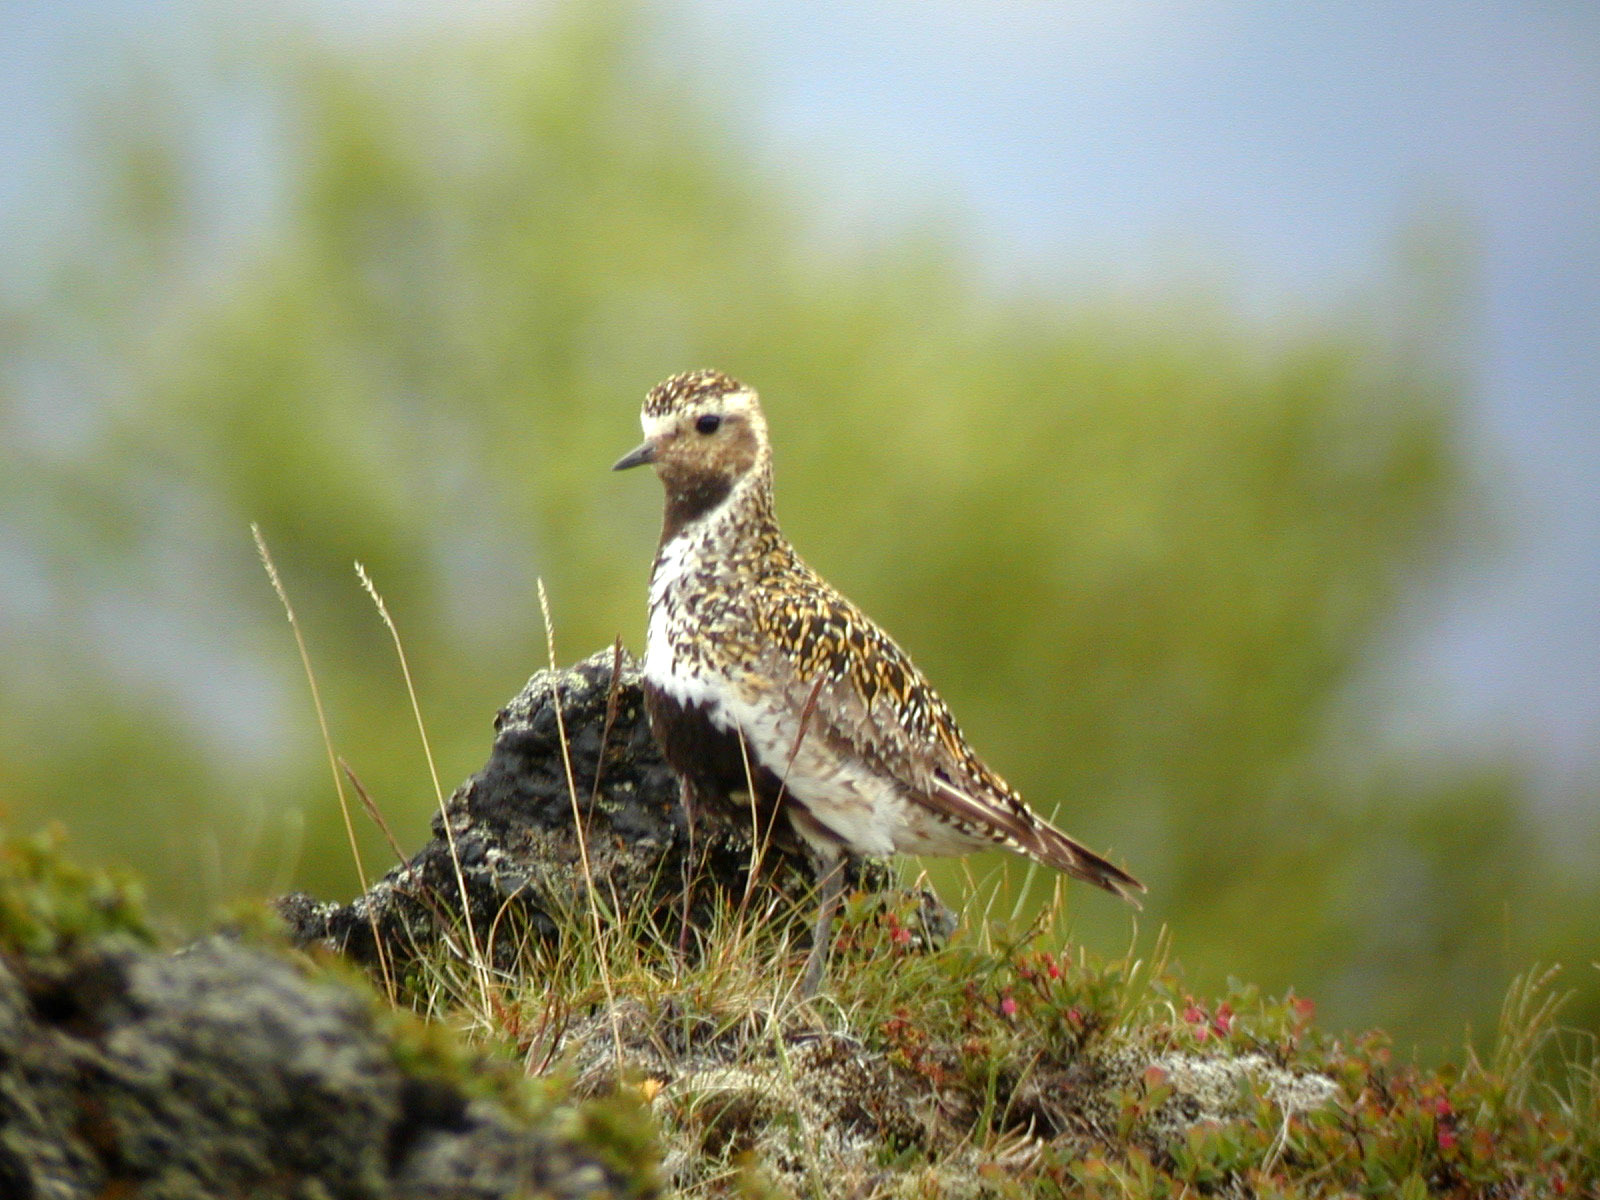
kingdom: Animalia
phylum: Chordata
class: Aves
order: Charadriiformes
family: Charadriidae
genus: Pluvialis
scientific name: Pluvialis apricaria
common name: European golden plover
